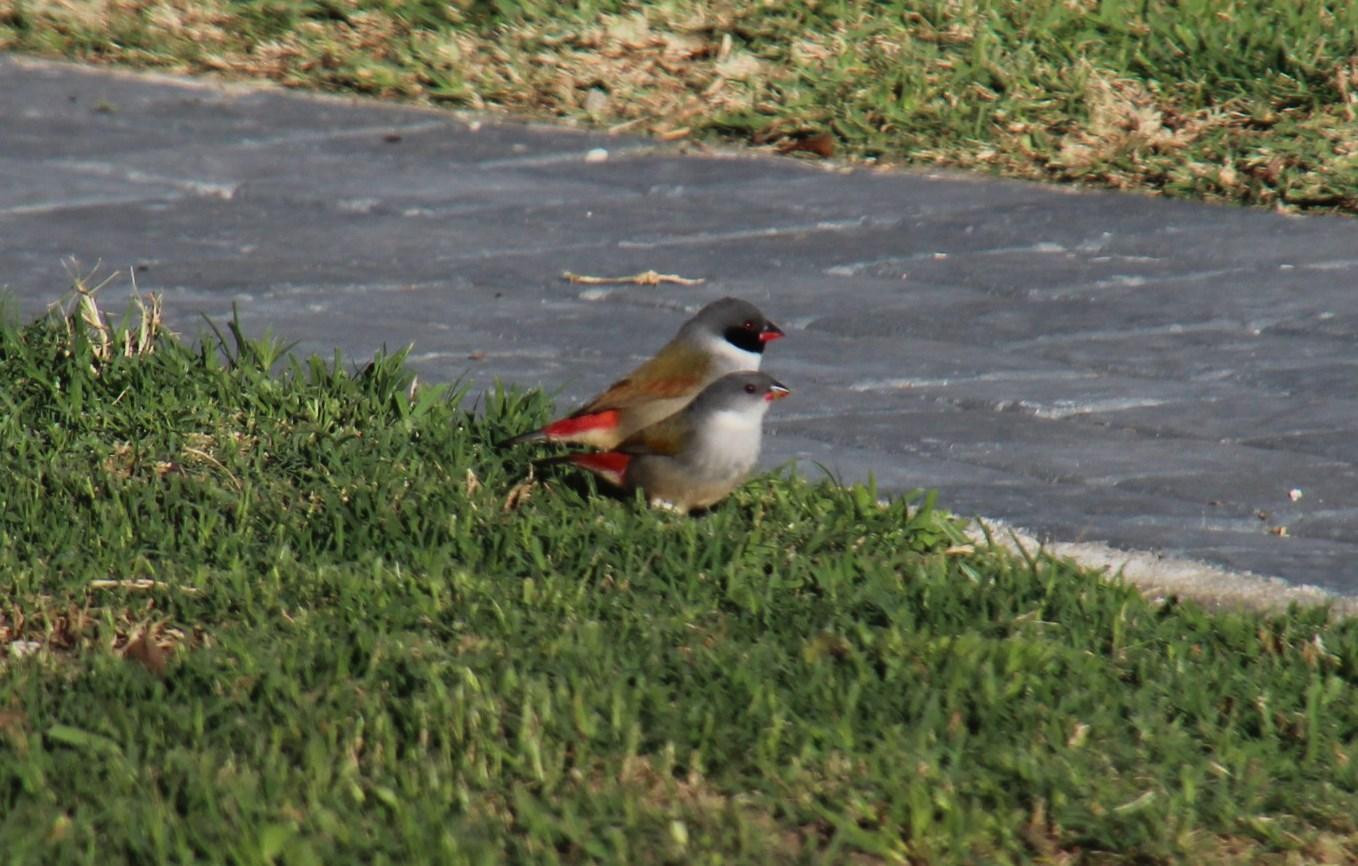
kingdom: Animalia
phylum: Chordata
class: Aves
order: Passeriformes
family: Estrildidae
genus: Coccopygia
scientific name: Coccopygia melanotis
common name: Swee waxbill
